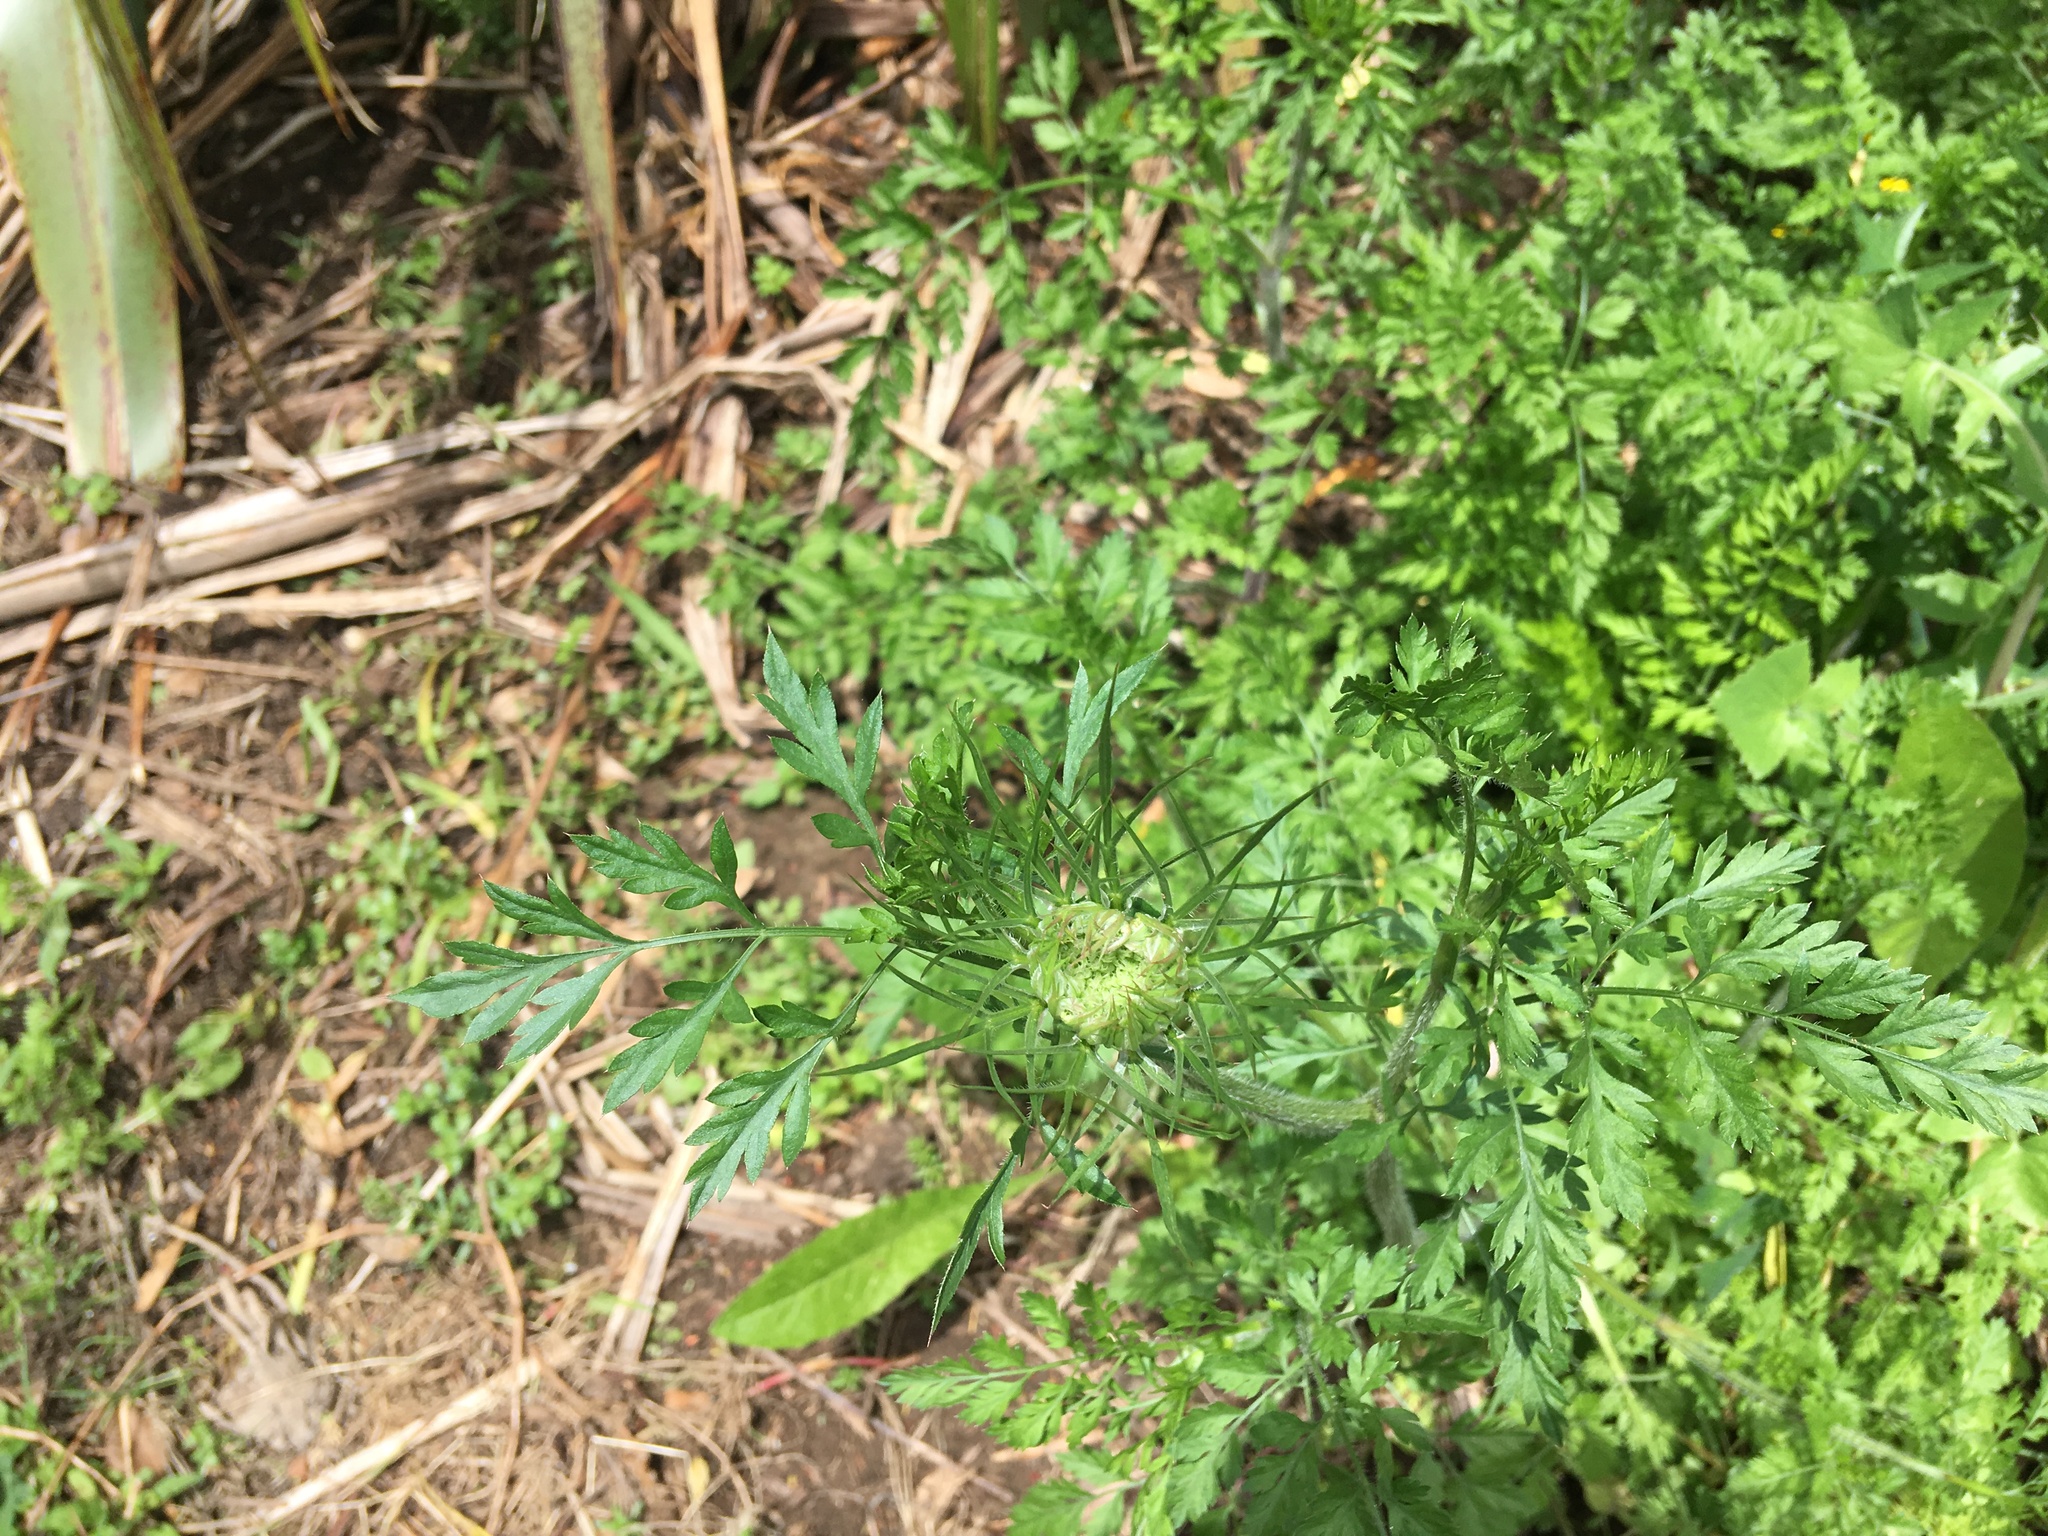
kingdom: Plantae
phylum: Tracheophyta
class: Magnoliopsida
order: Apiales
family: Apiaceae
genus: Daucus
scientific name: Daucus carota
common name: Wild carrot
